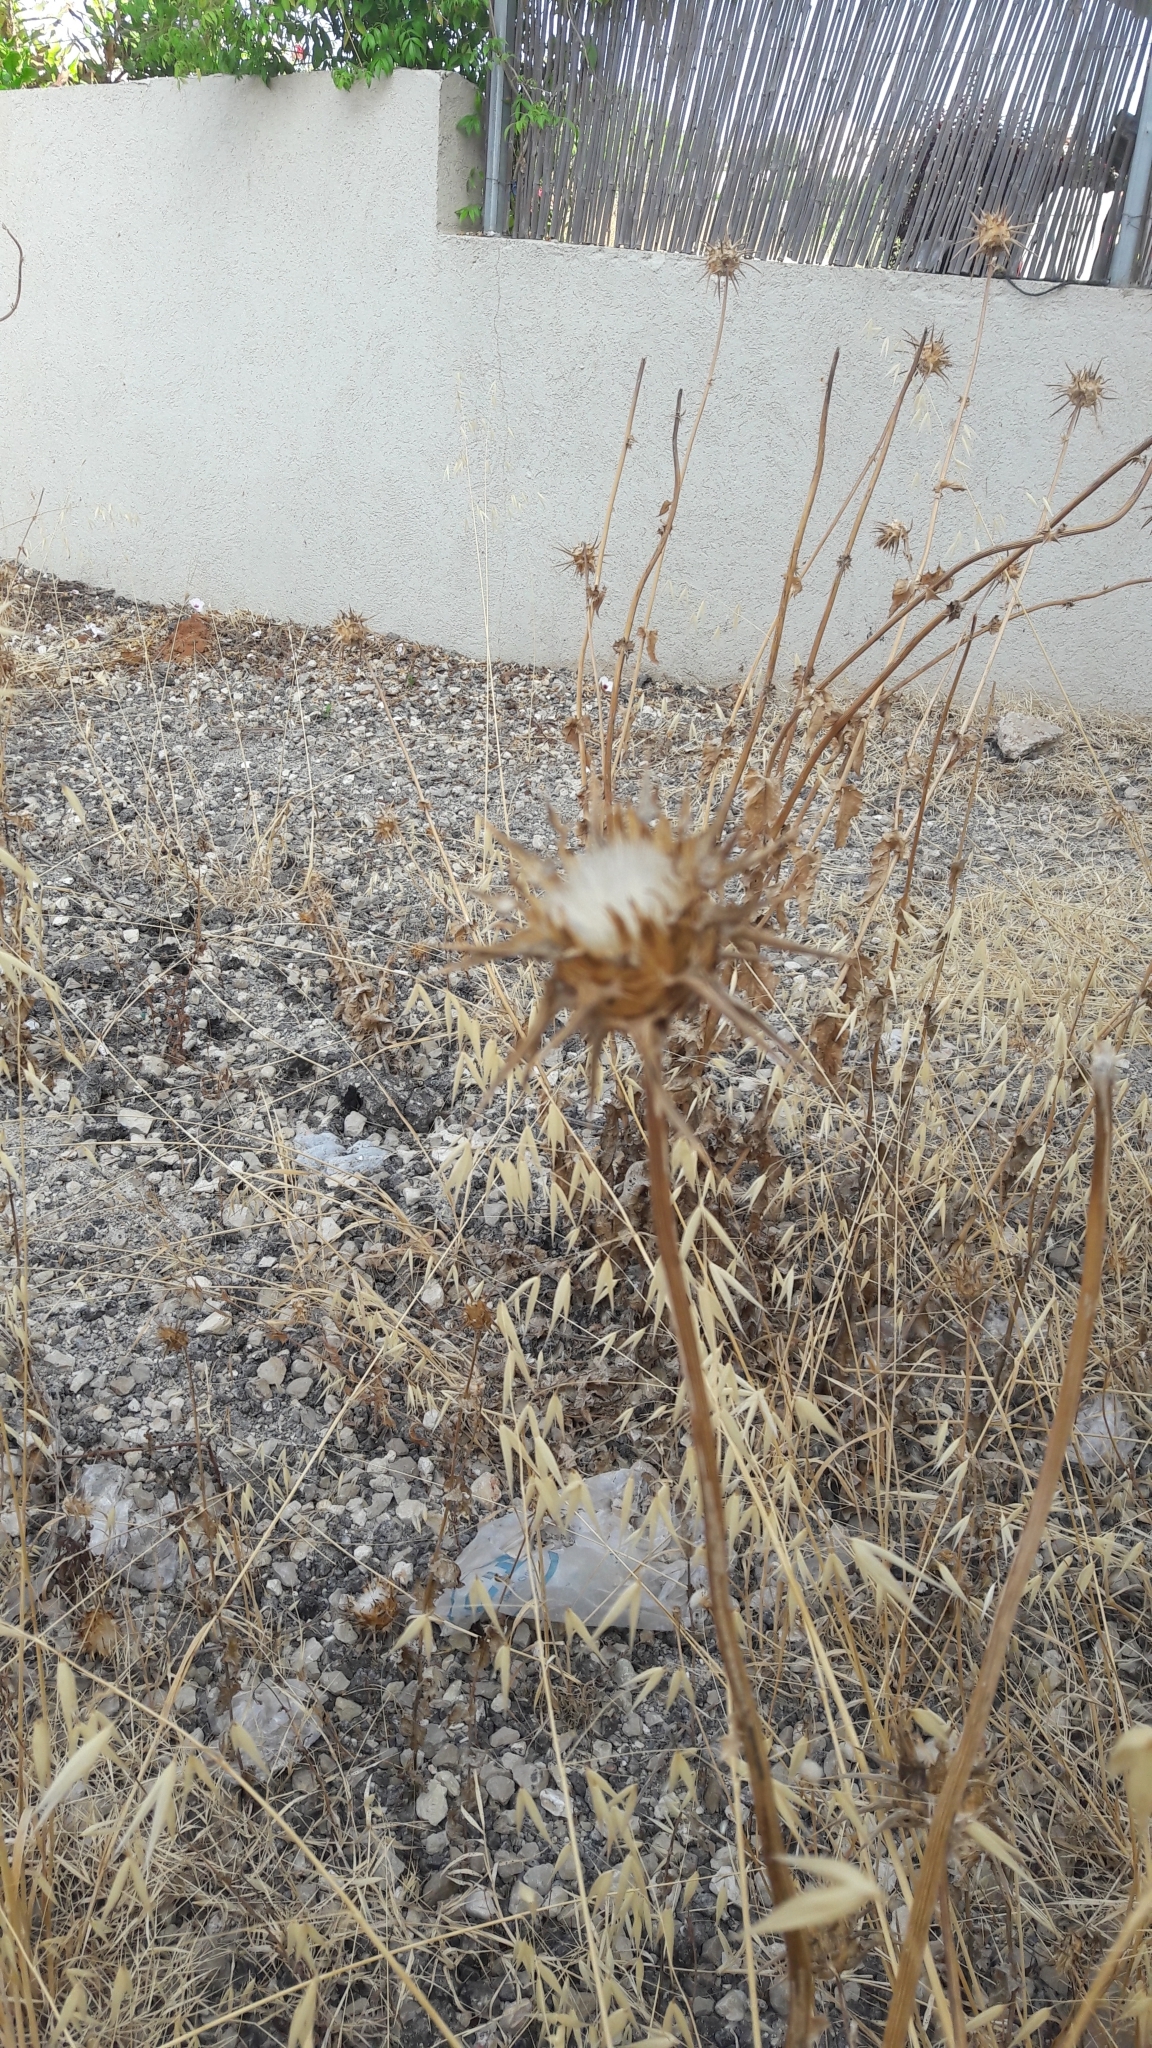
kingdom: Plantae
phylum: Tracheophyta
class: Magnoliopsida
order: Asterales
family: Asteraceae
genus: Silybum
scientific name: Silybum marianum
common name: Milk thistle
